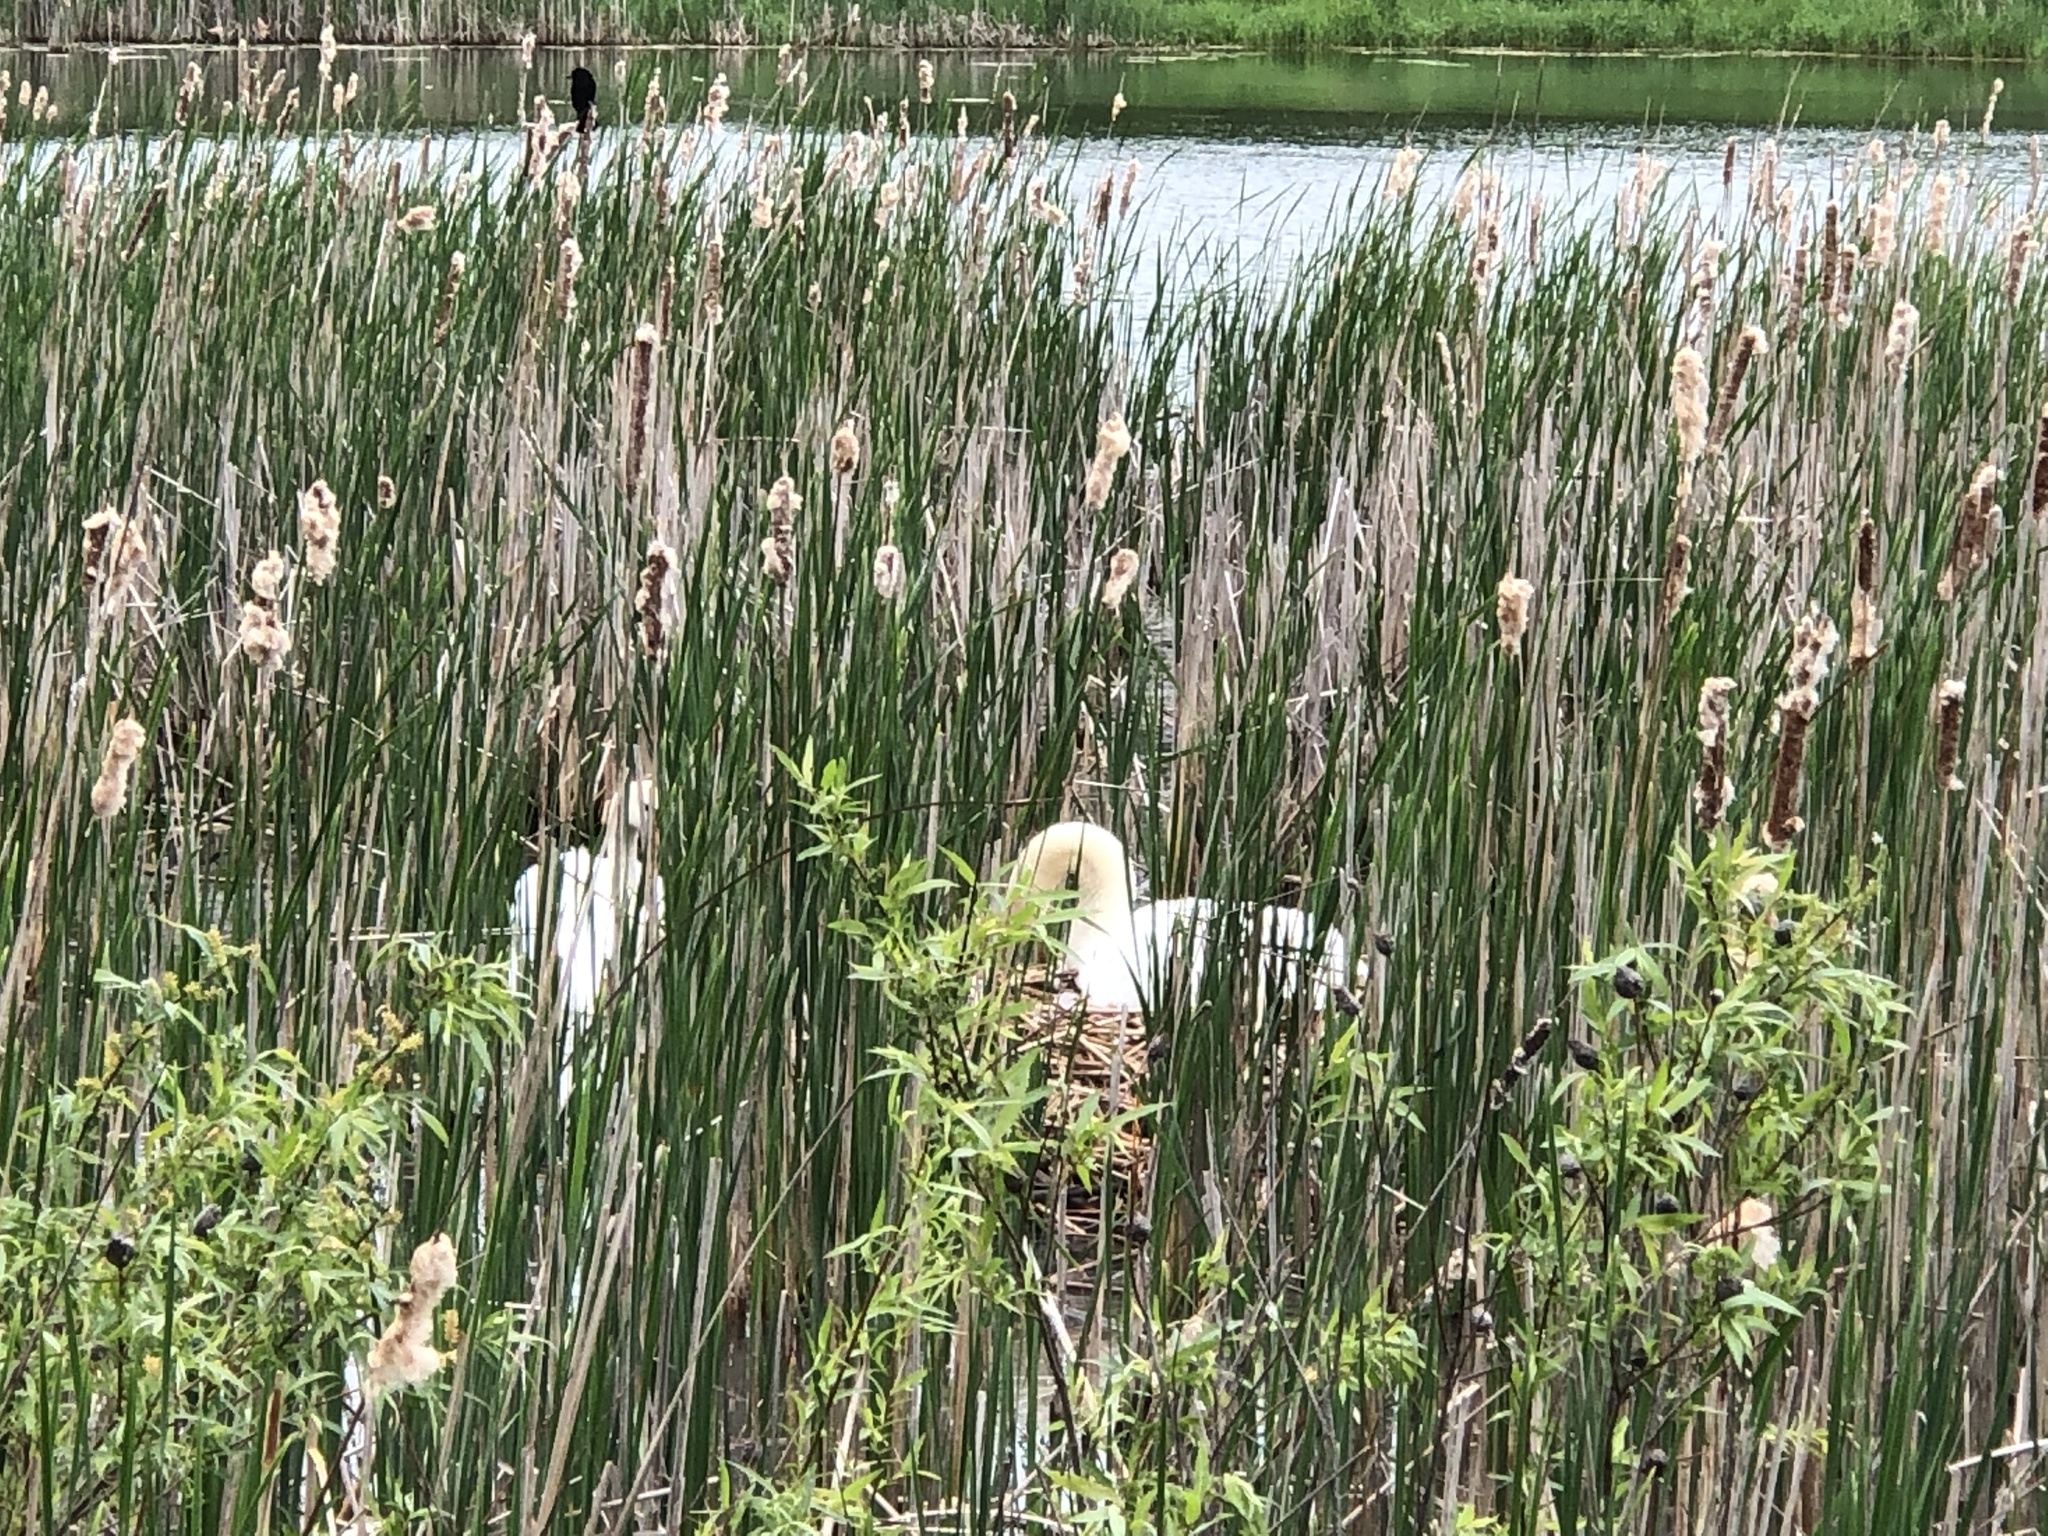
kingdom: Animalia
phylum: Chordata
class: Aves
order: Anseriformes
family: Anatidae
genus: Cygnus
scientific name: Cygnus olor
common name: Mute swan
